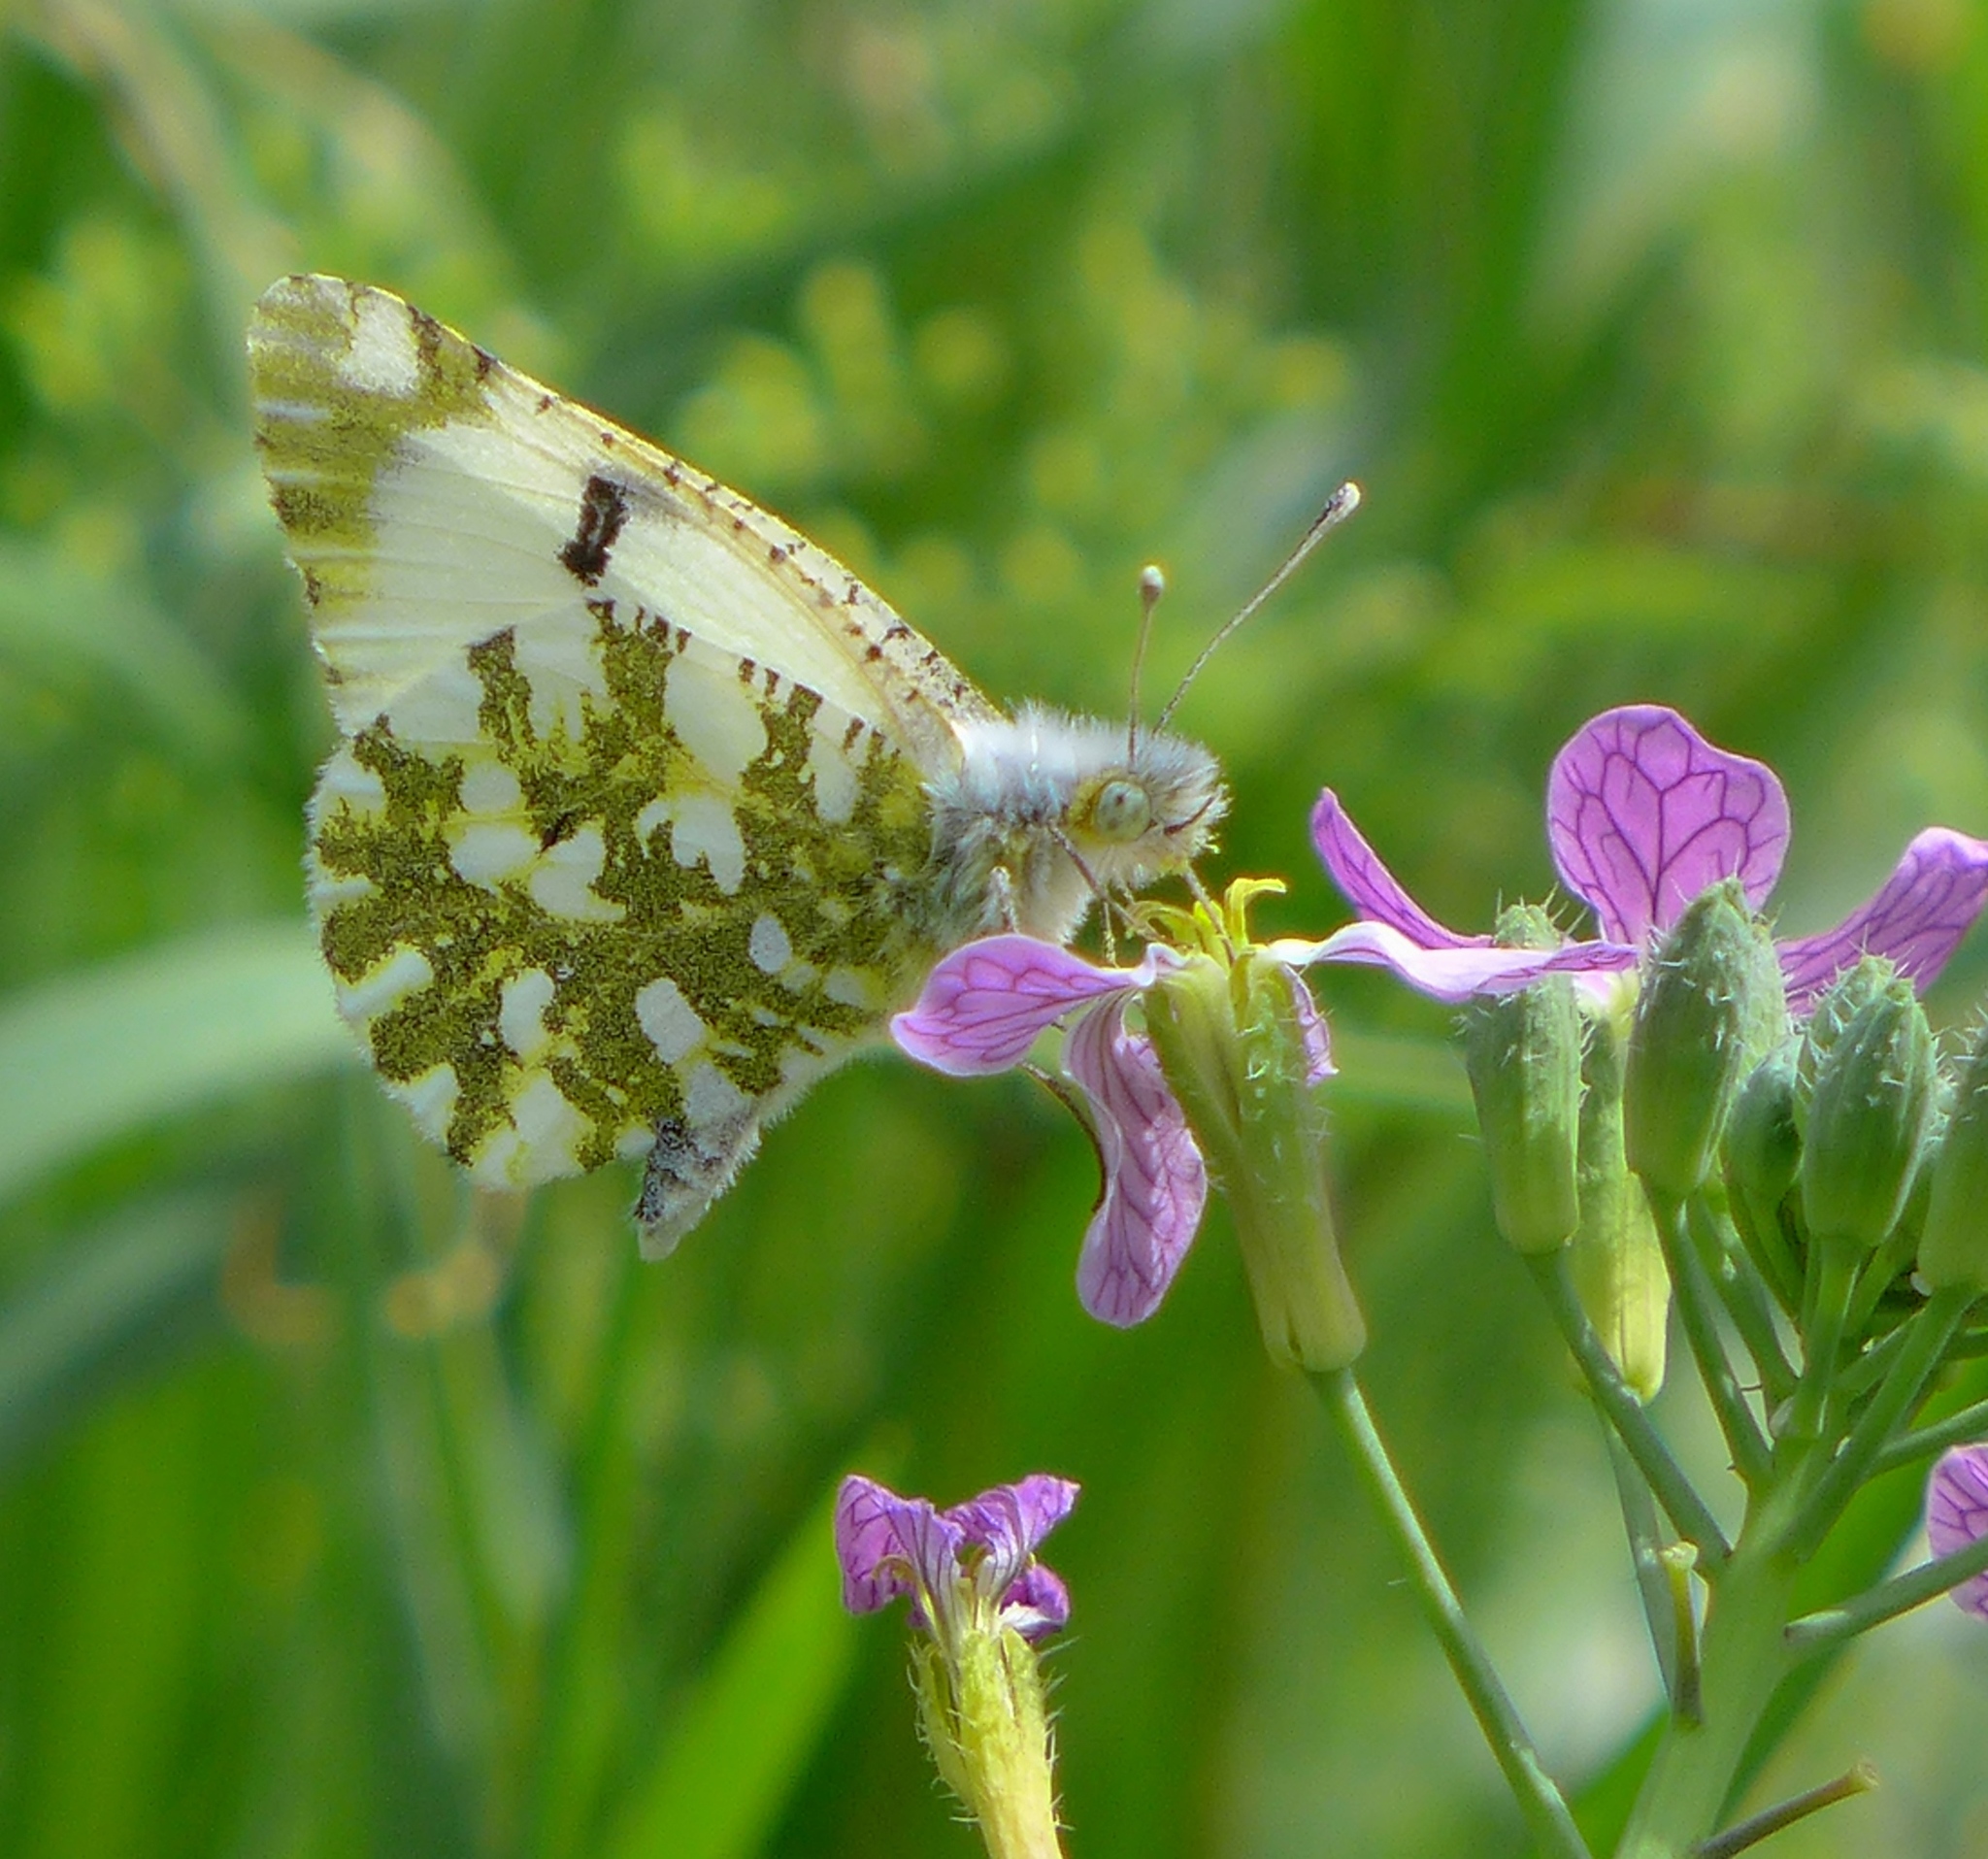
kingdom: Animalia
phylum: Arthropoda
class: Insecta
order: Lepidoptera
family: Pieridae
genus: Euchloe
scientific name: Euchloe ausonides
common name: Creamy marblewing
